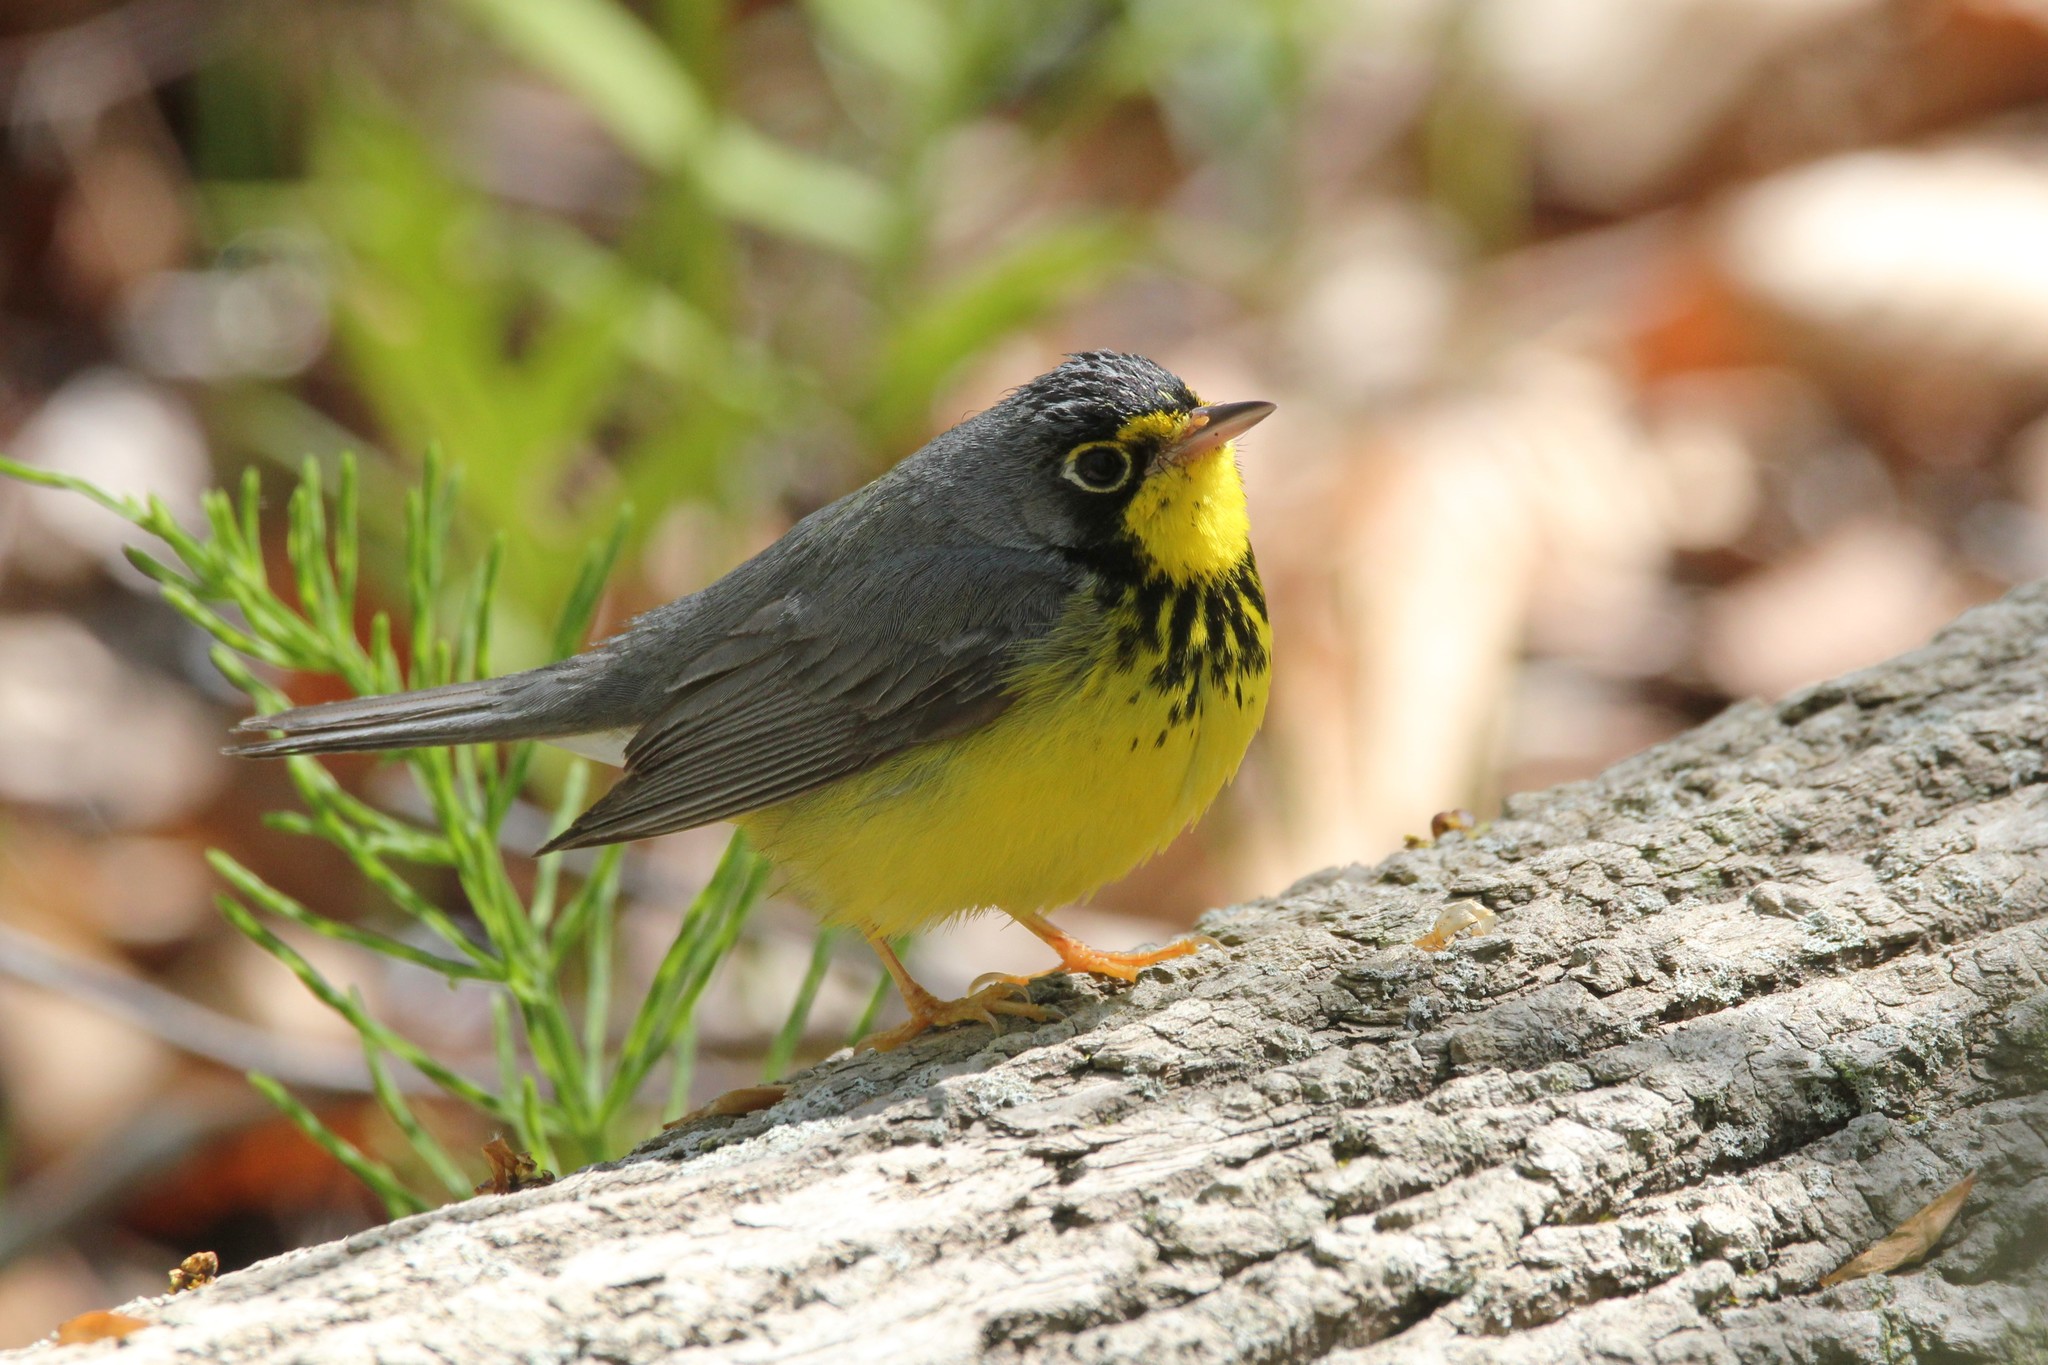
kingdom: Animalia
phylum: Chordata
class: Aves
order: Passeriformes
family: Parulidae
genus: Cardellina
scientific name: Cardellina canadensis
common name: Canada warbler
